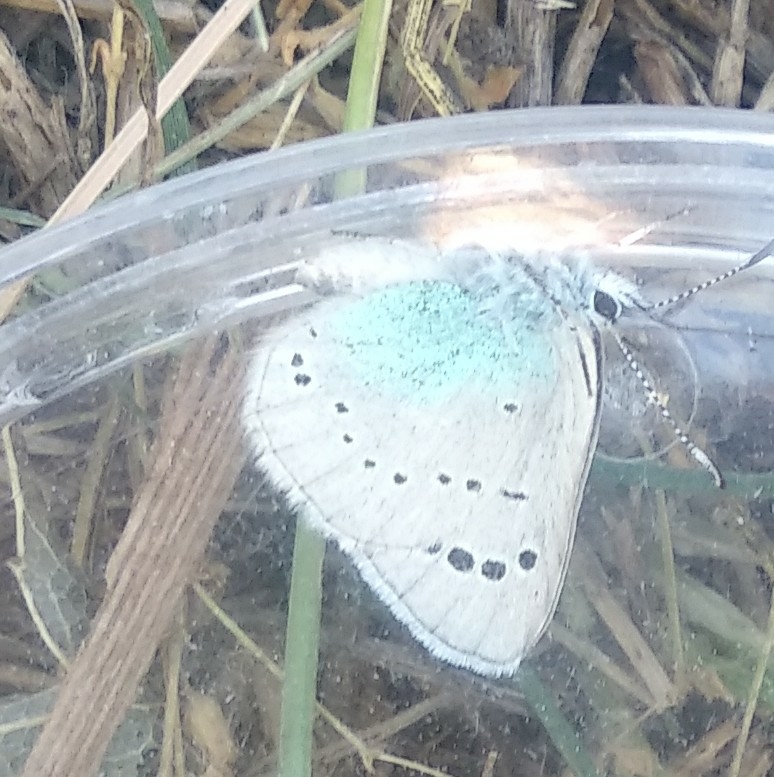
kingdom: Animalia
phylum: Arthropoda
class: Insecta
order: Lepidoptera
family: Lycaenidae
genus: Glaucopsyche
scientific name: Glaucopsyche alexis
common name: Green-underside blue
